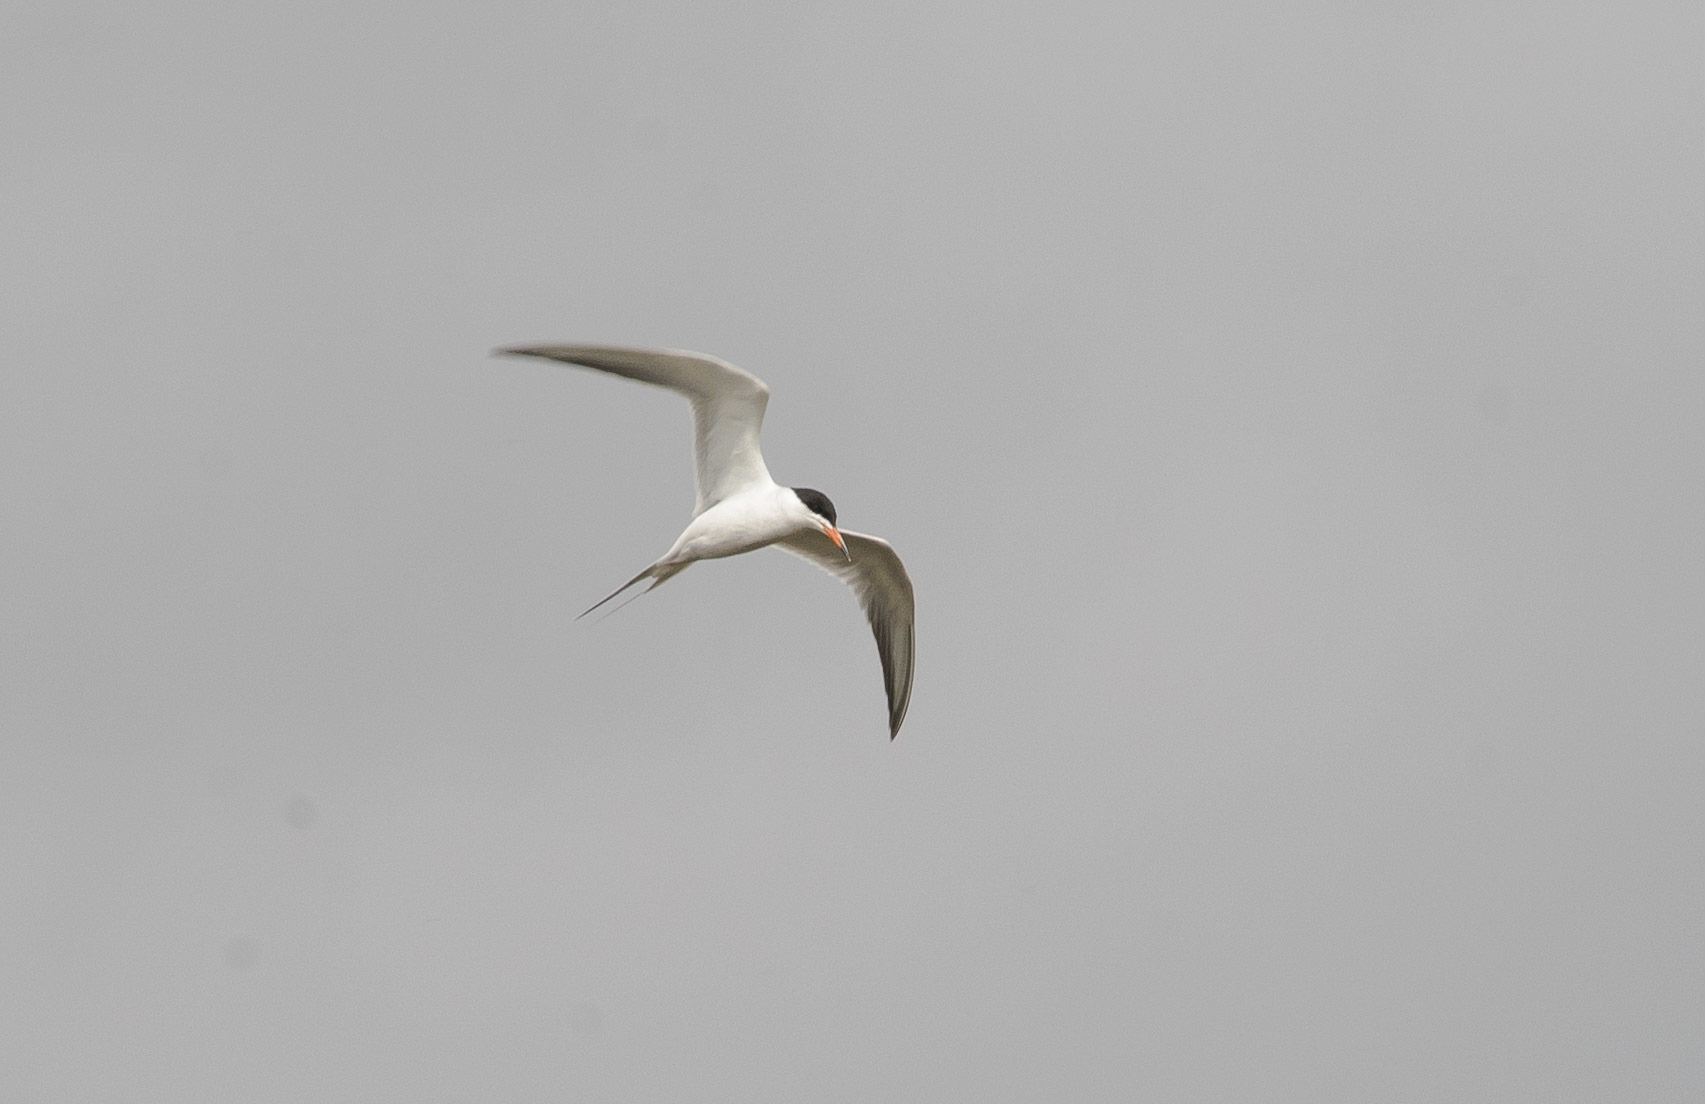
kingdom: Animalia
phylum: Chordata
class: Aves
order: Charadriiformes
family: Laridae
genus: Sterna
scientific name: Sterna forsteri
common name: Forster's tern
